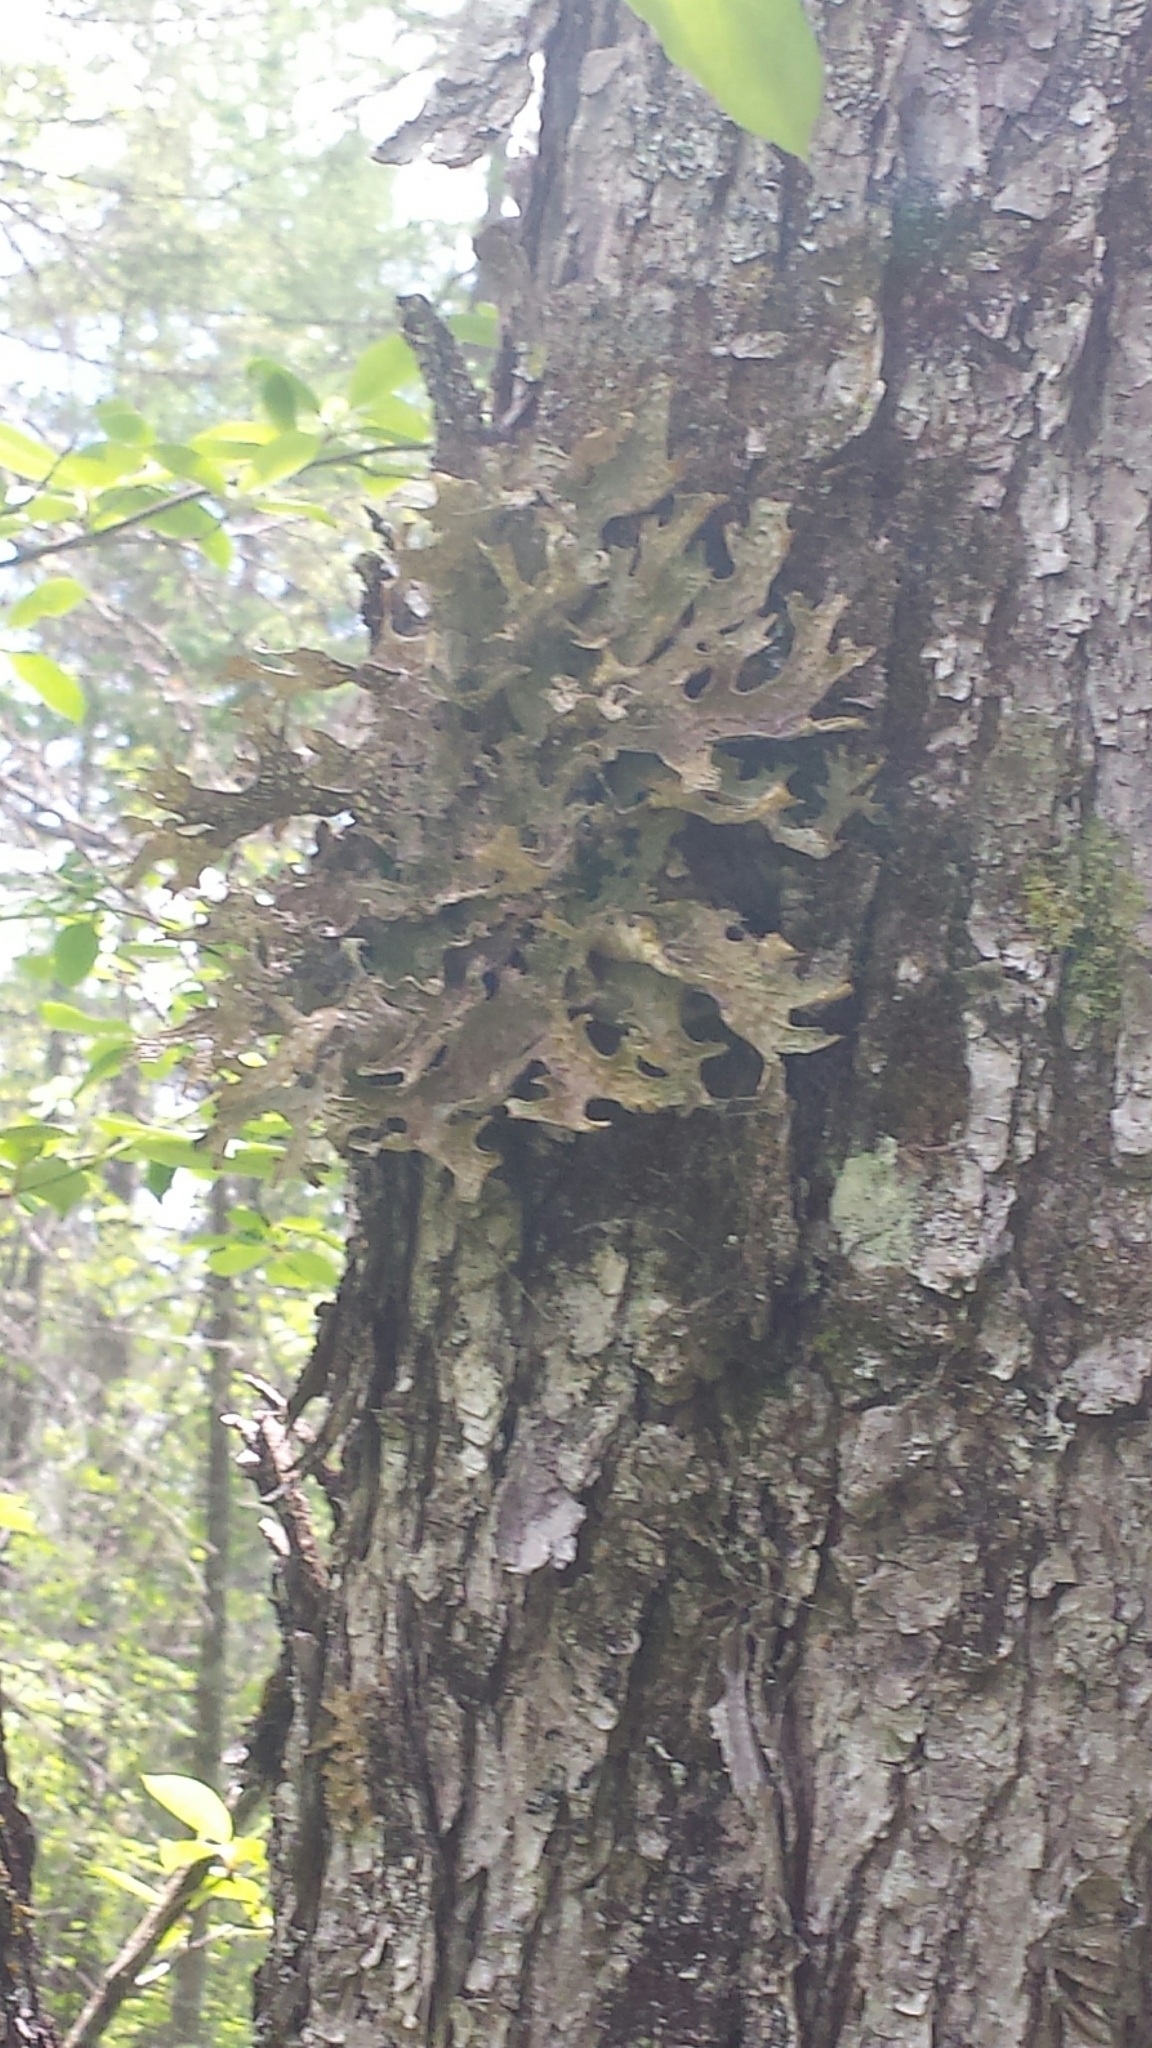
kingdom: Fungi
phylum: Ascomycota
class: Lecanoromycetes
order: Peltigerales
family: Lobariaceae
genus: Lobaria
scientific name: Lobaria pulmonaria
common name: Lungwort
